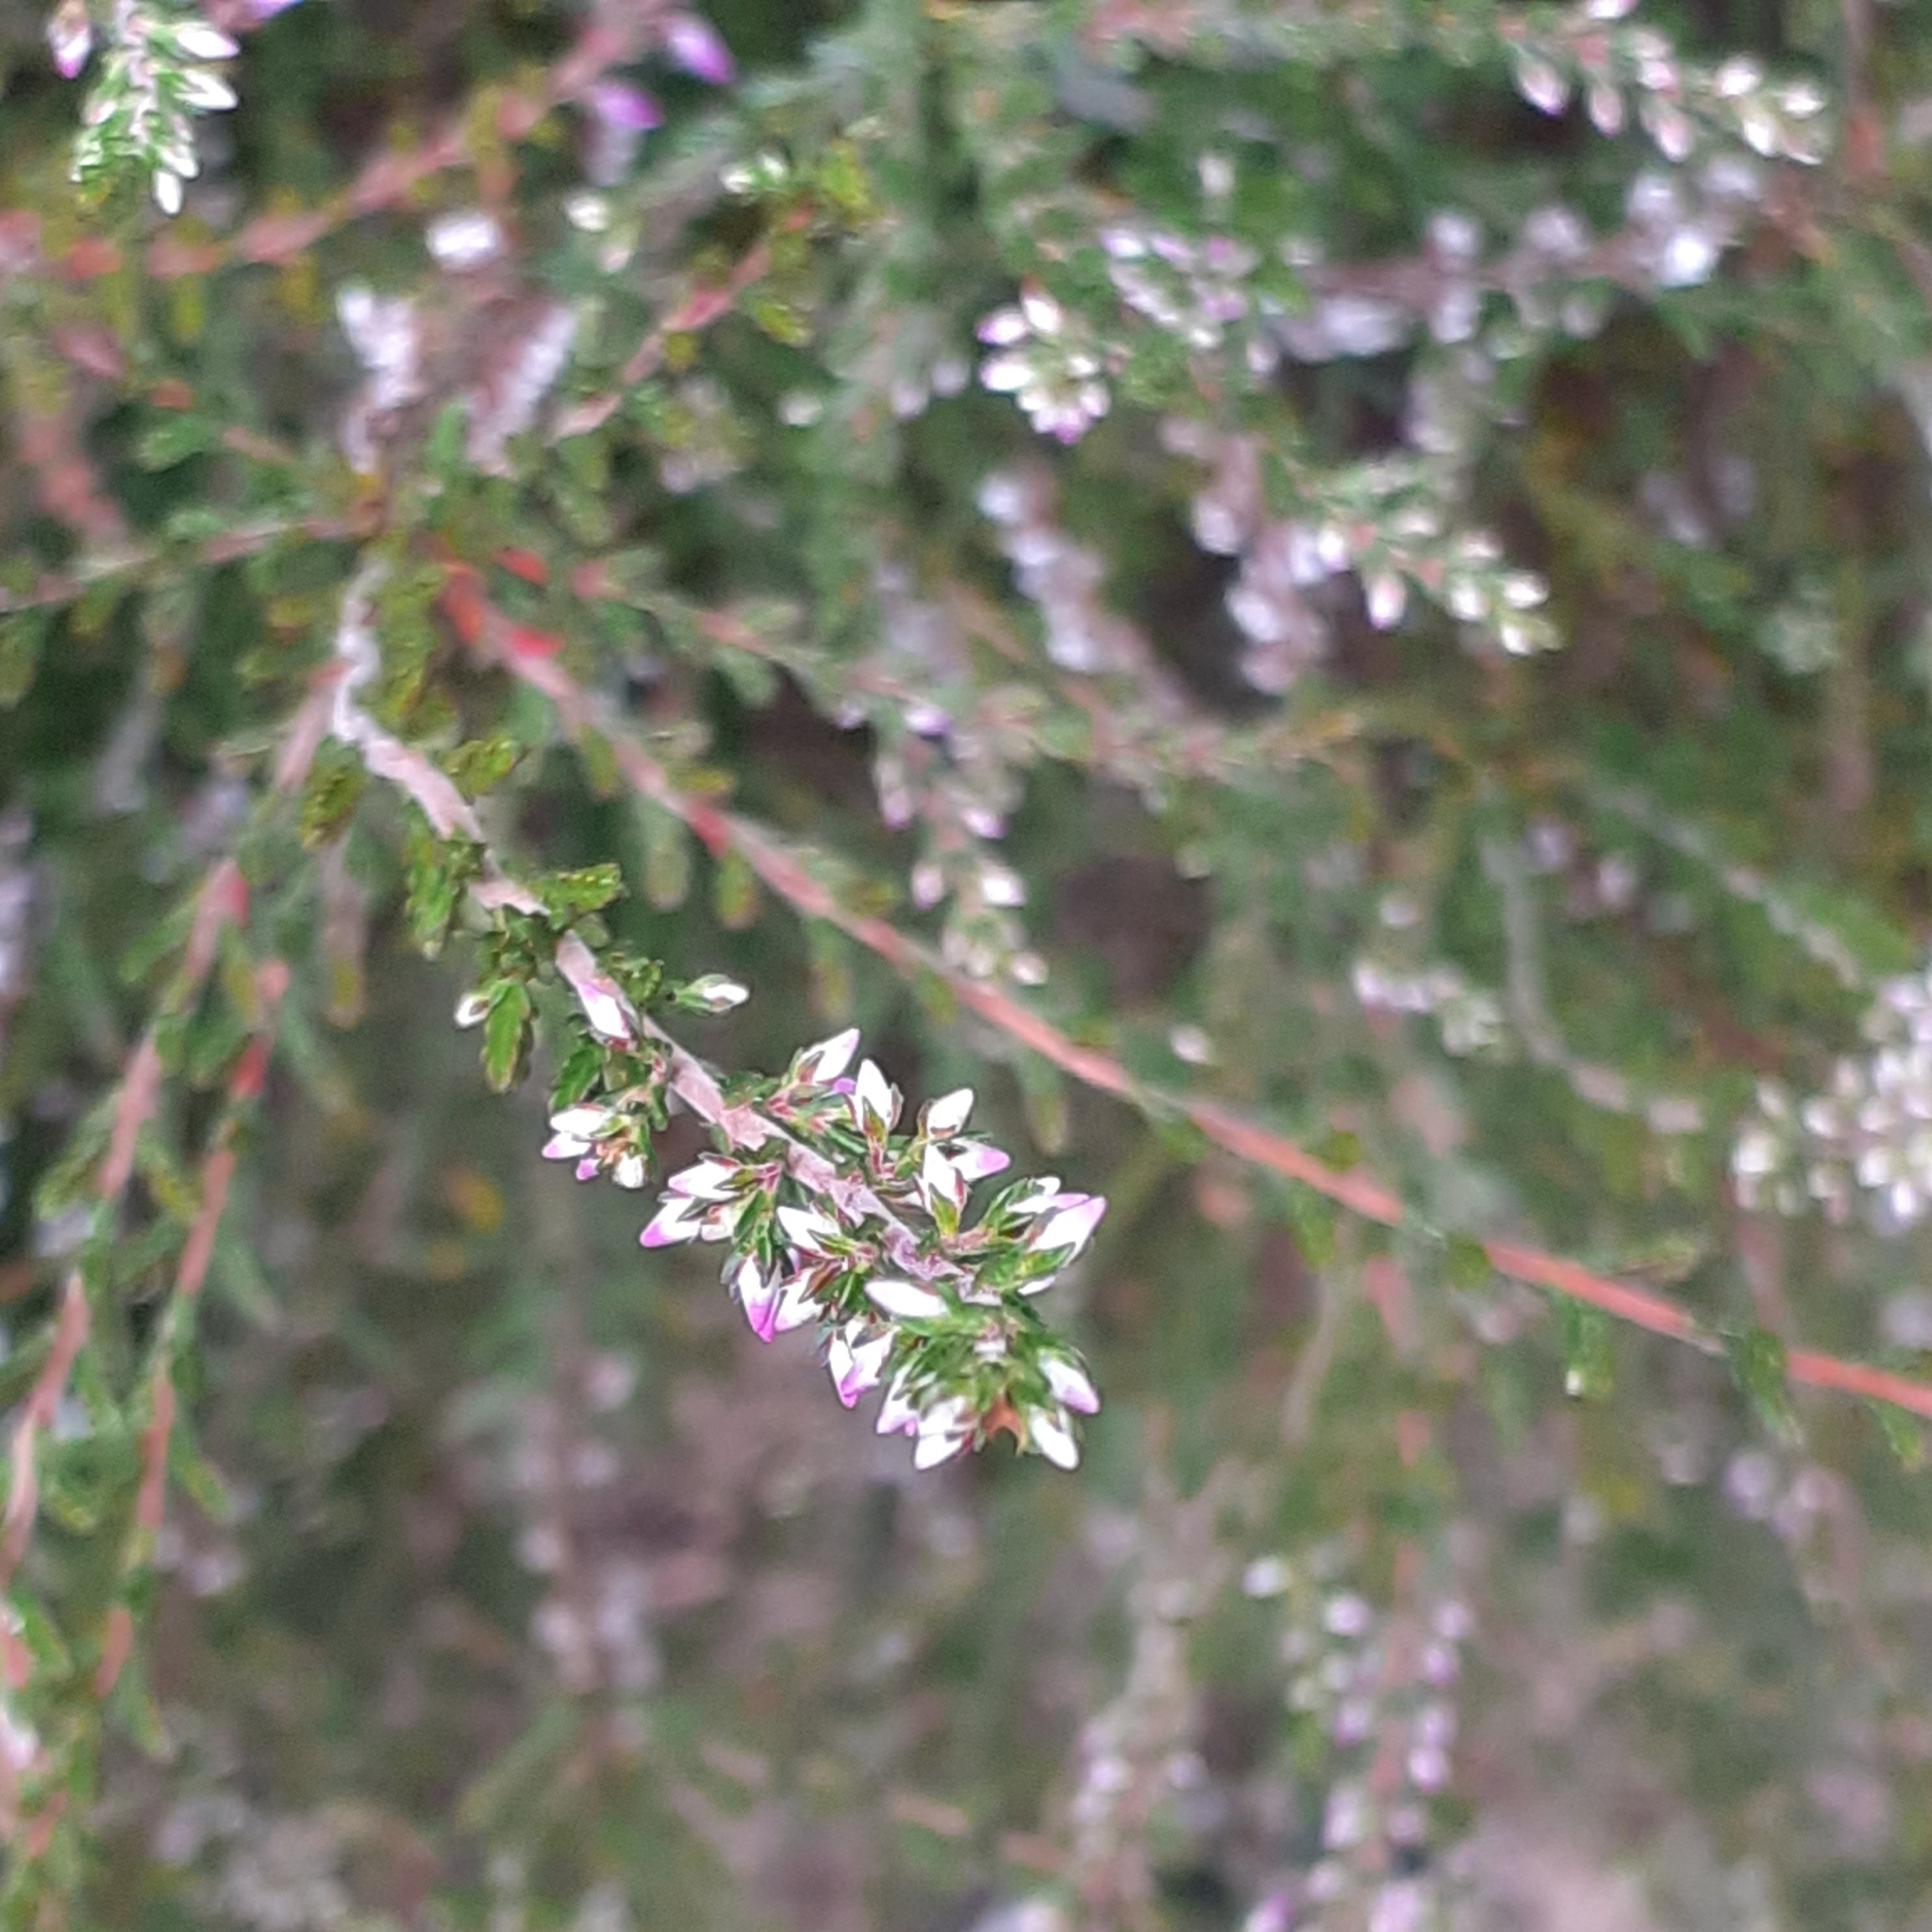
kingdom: Plantae
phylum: Tracheophyta
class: Magnoliopsida
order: Ericales
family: Ericaceae
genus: Calluna
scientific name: Calluna vulgaris
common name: Heather
